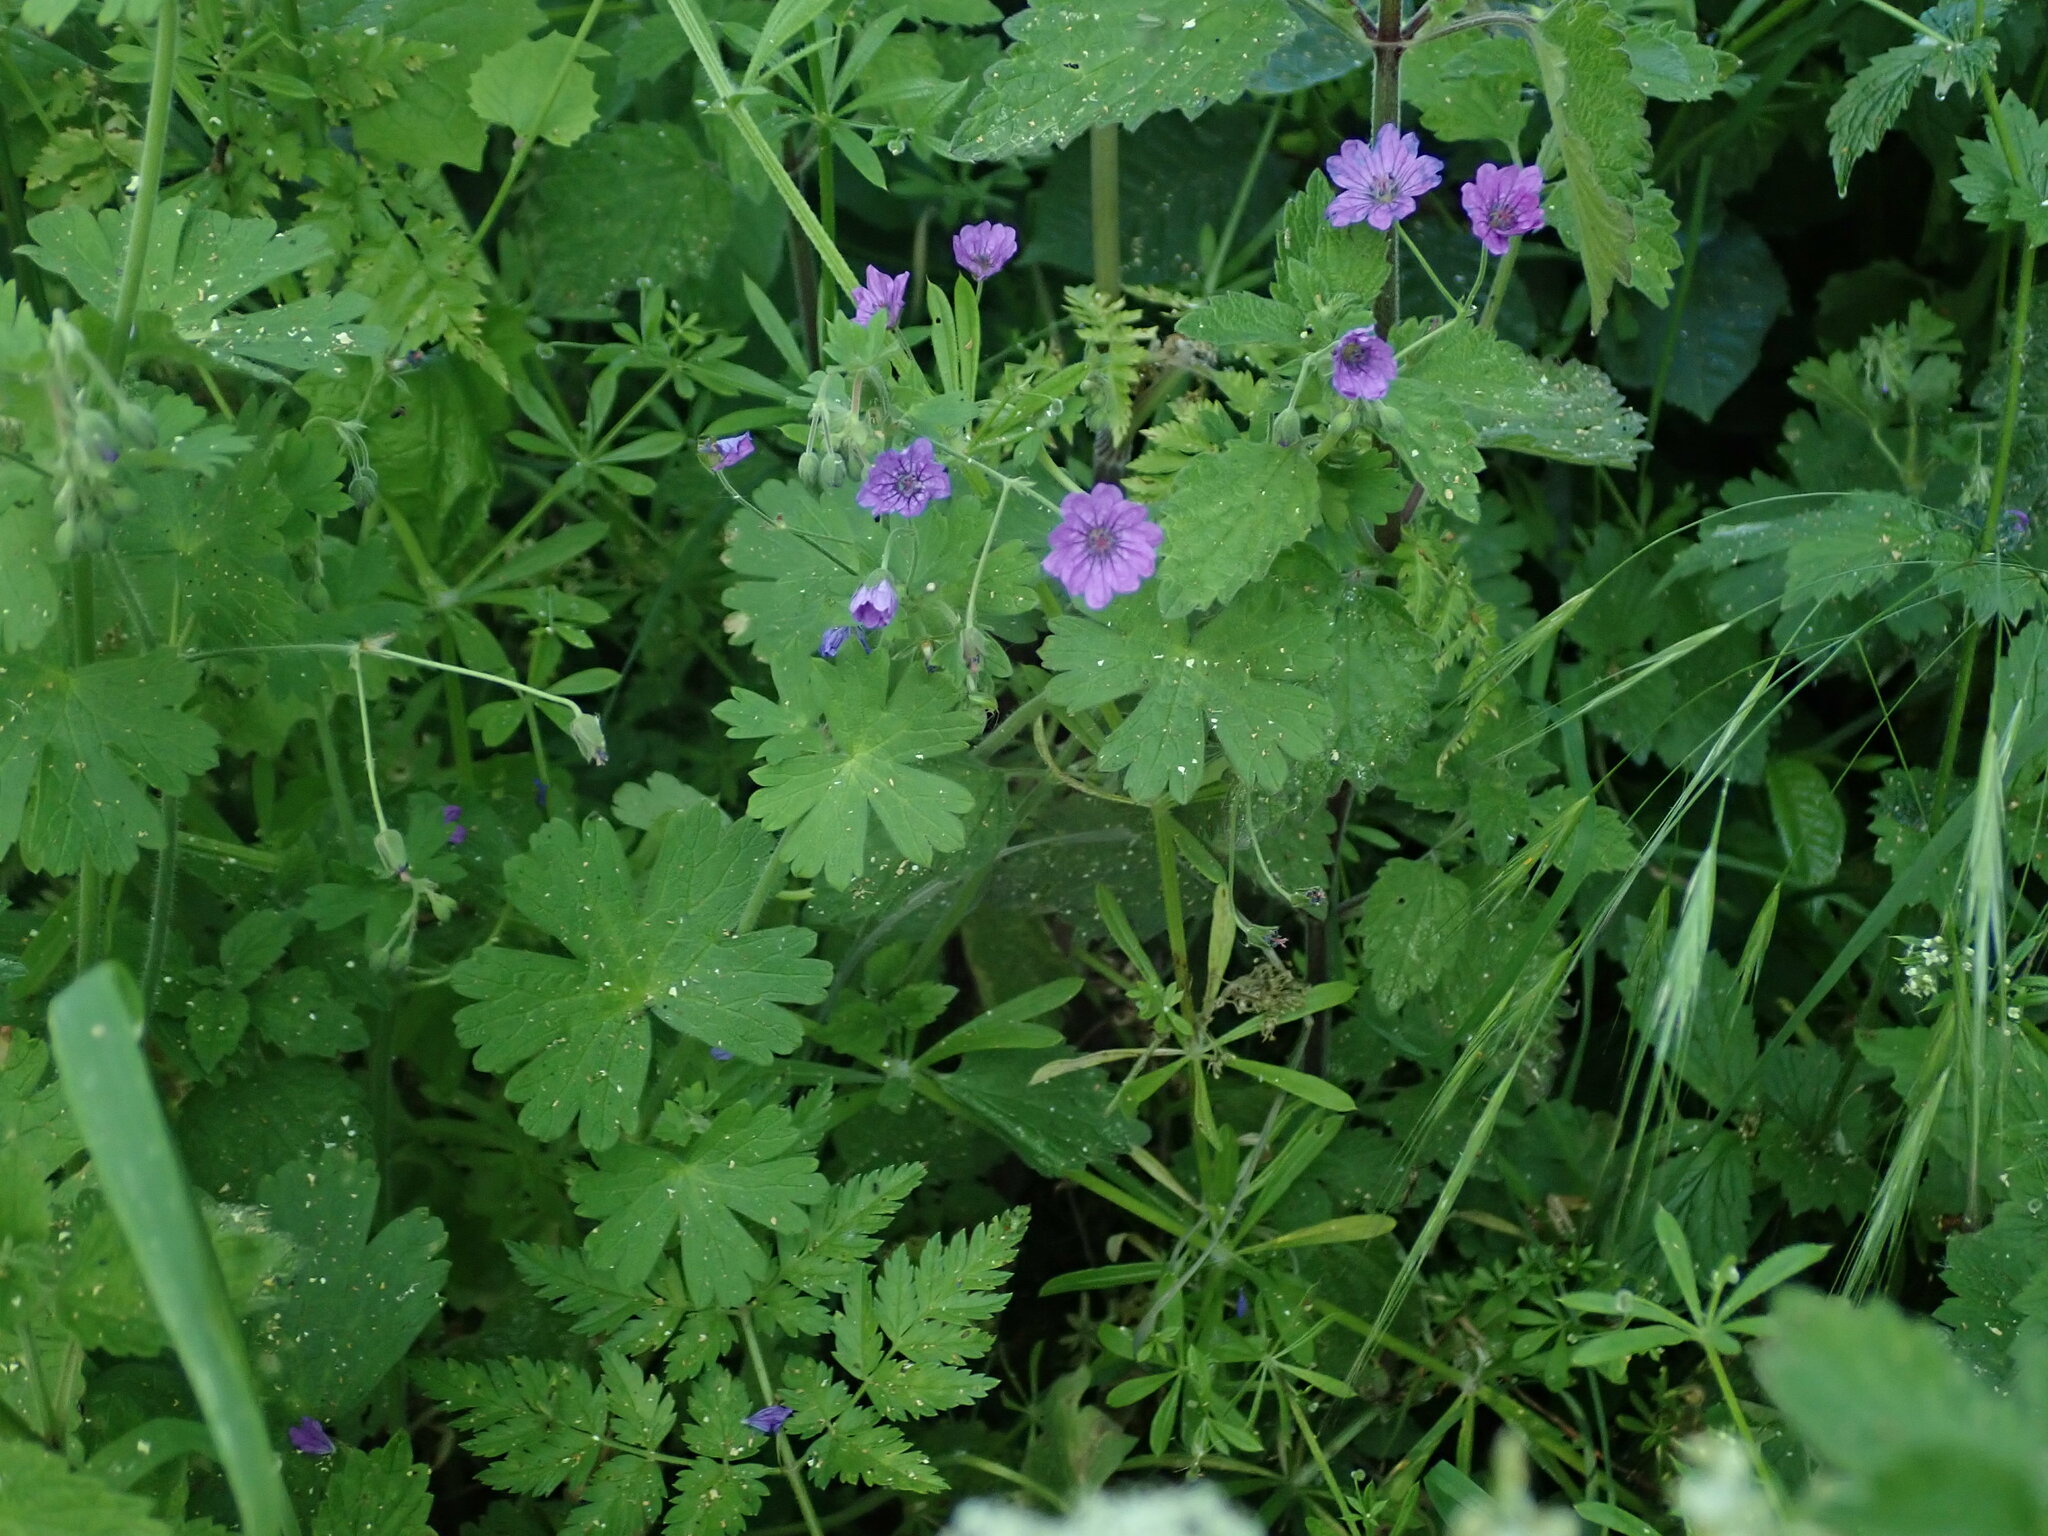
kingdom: Plantae
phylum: Tracheophyta
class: Magnoliopsida
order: Geraniales
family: Geraniaceae
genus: Geranium
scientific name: Geranium pyrenaicum
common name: Hedgerow crane's-bill
